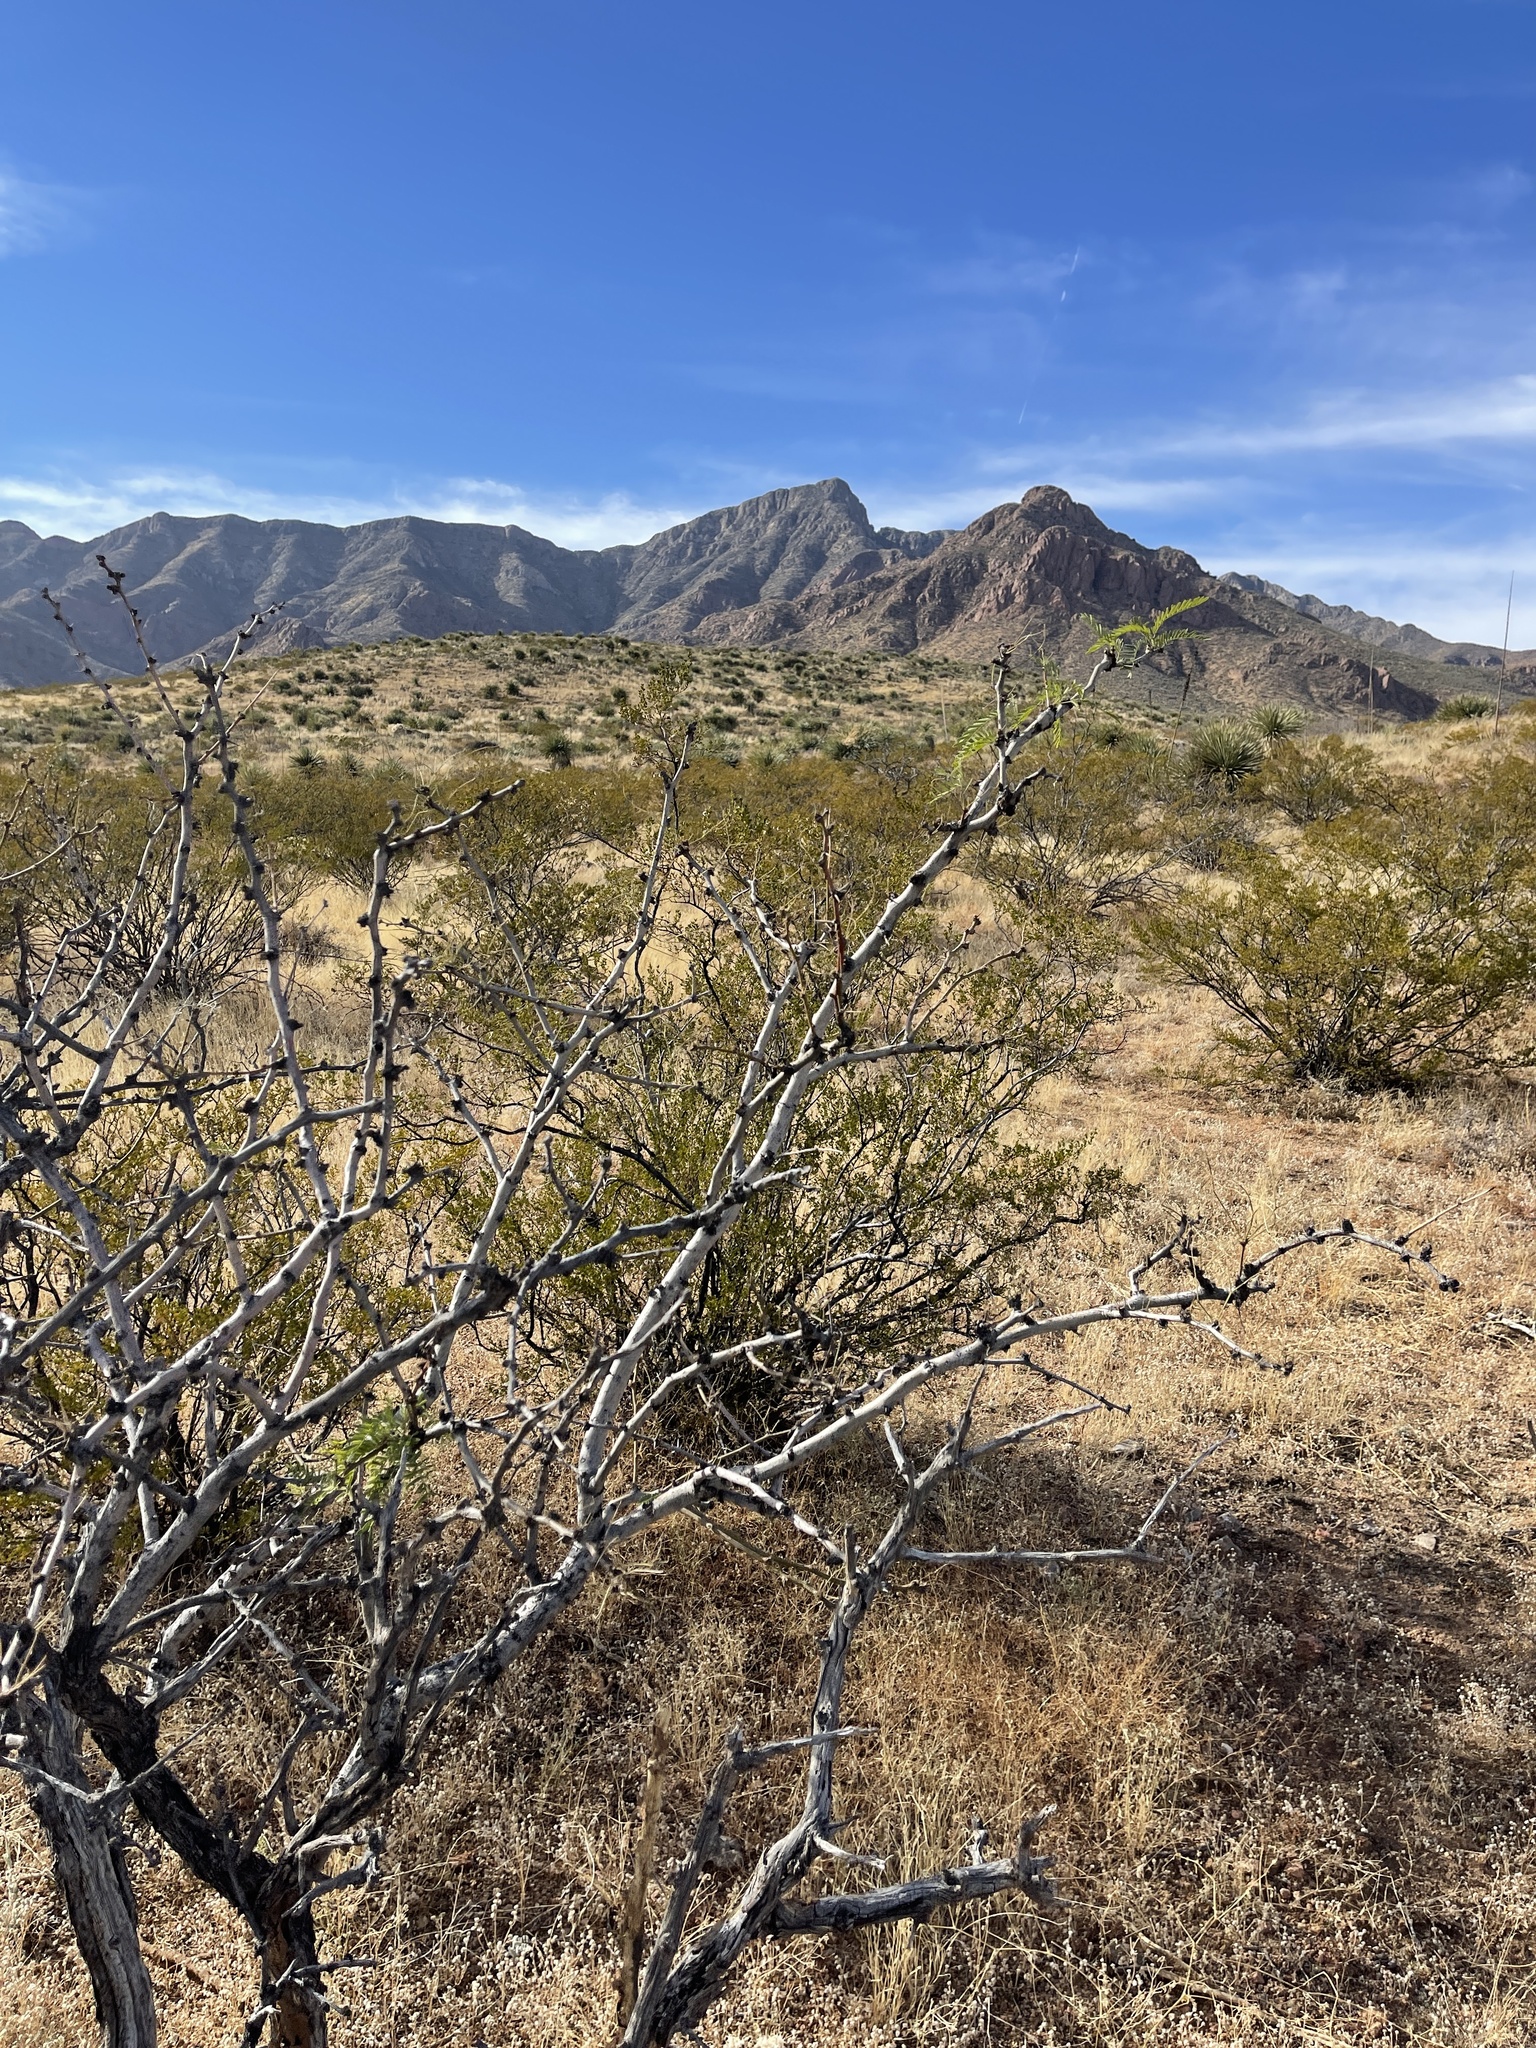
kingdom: Plantae
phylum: Tracheophyta
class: Magnoliopsida
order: Fabales
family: Fabaceae
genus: Prosopis
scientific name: Prosopis glandulosa
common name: Honey mesquite
